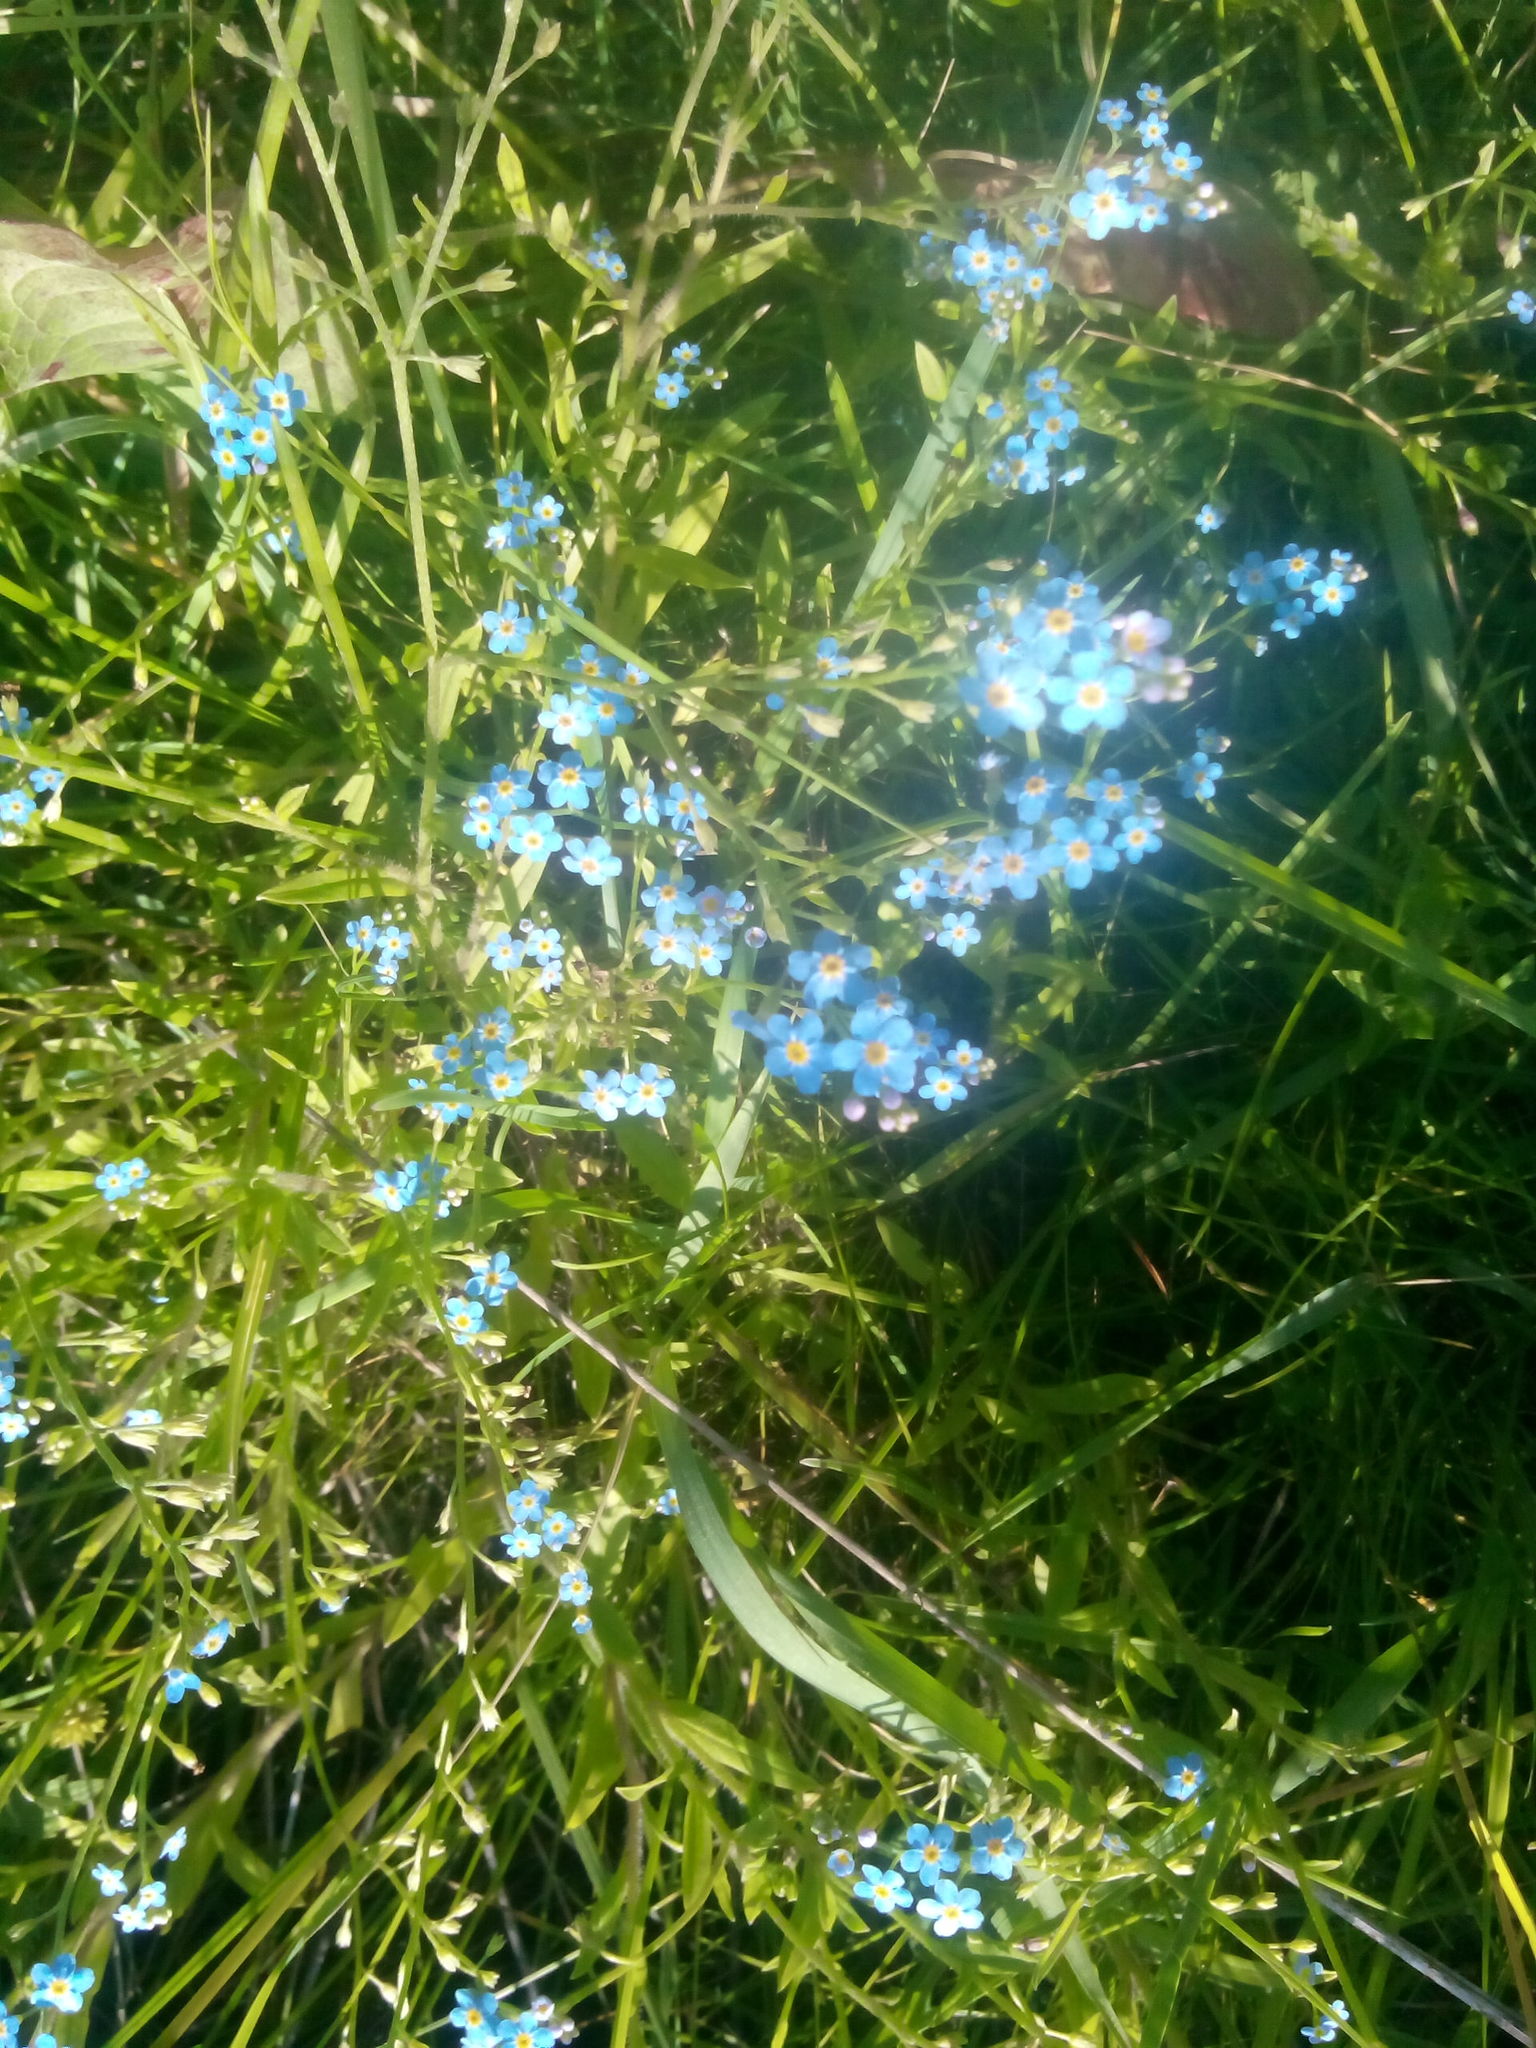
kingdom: Plantae
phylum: Tracheophyta
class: Magnoliopsida
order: Boraginales
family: Boraginaceae
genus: Myosotis
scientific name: Myosotis scorpioides
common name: Water forget-me-not
